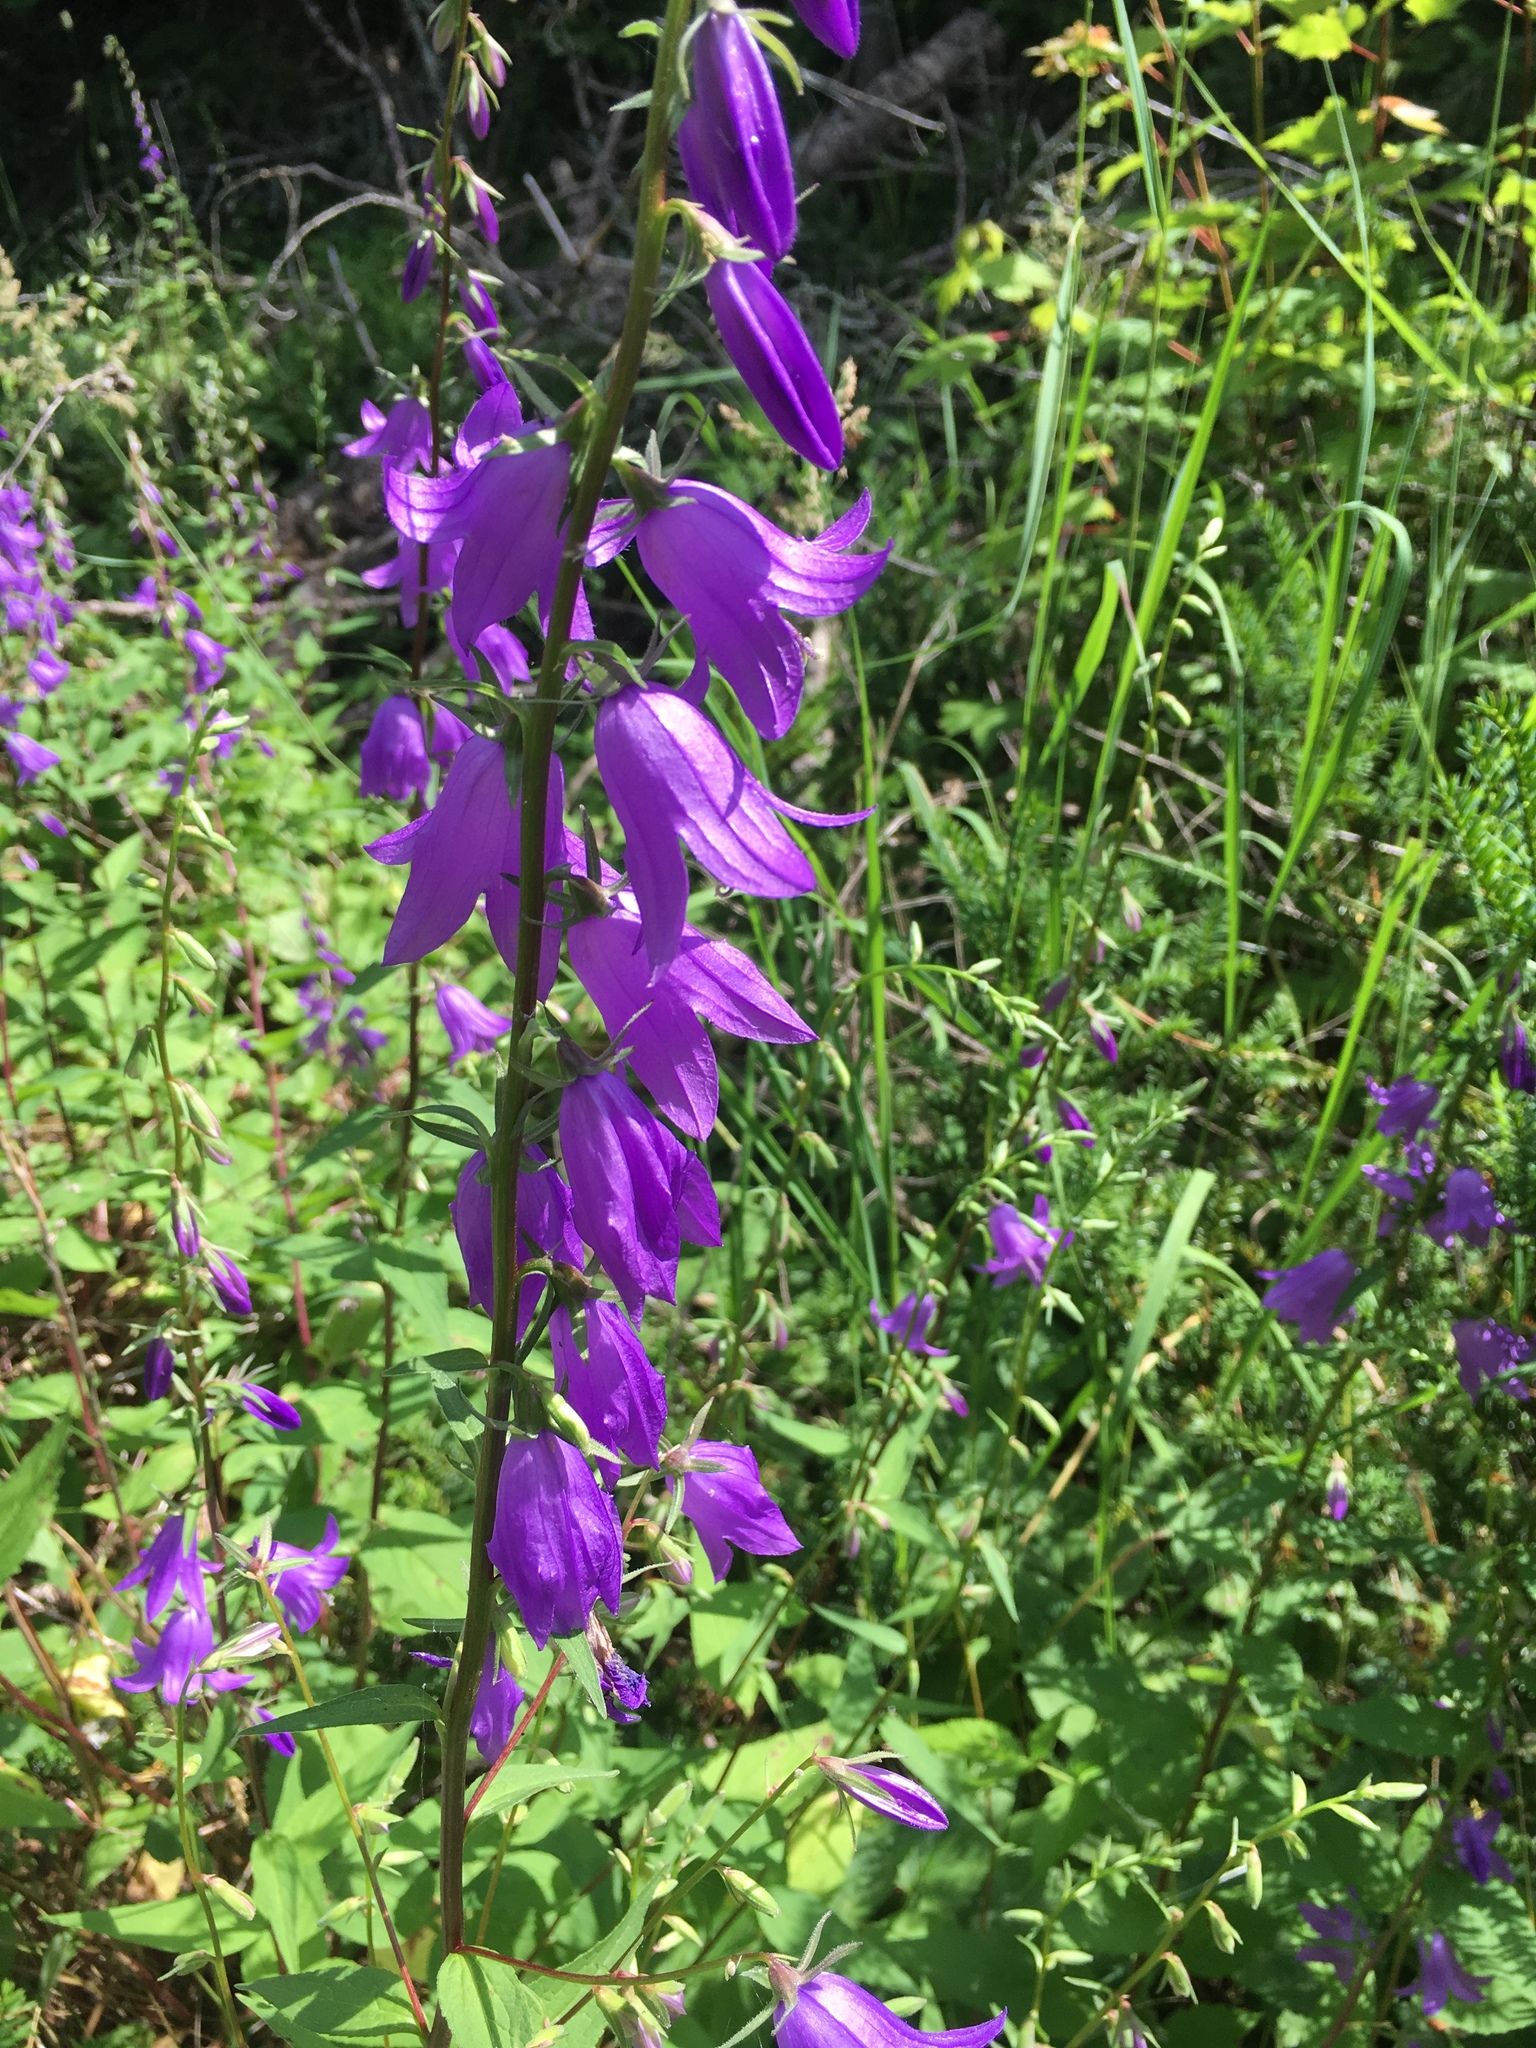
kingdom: Plantae
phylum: Tracheophyta
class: Magnoliopsida
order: Asterales
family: Campanulaceae
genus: Campanula
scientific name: Campanula rapunculoides
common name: Creeping bellflower
